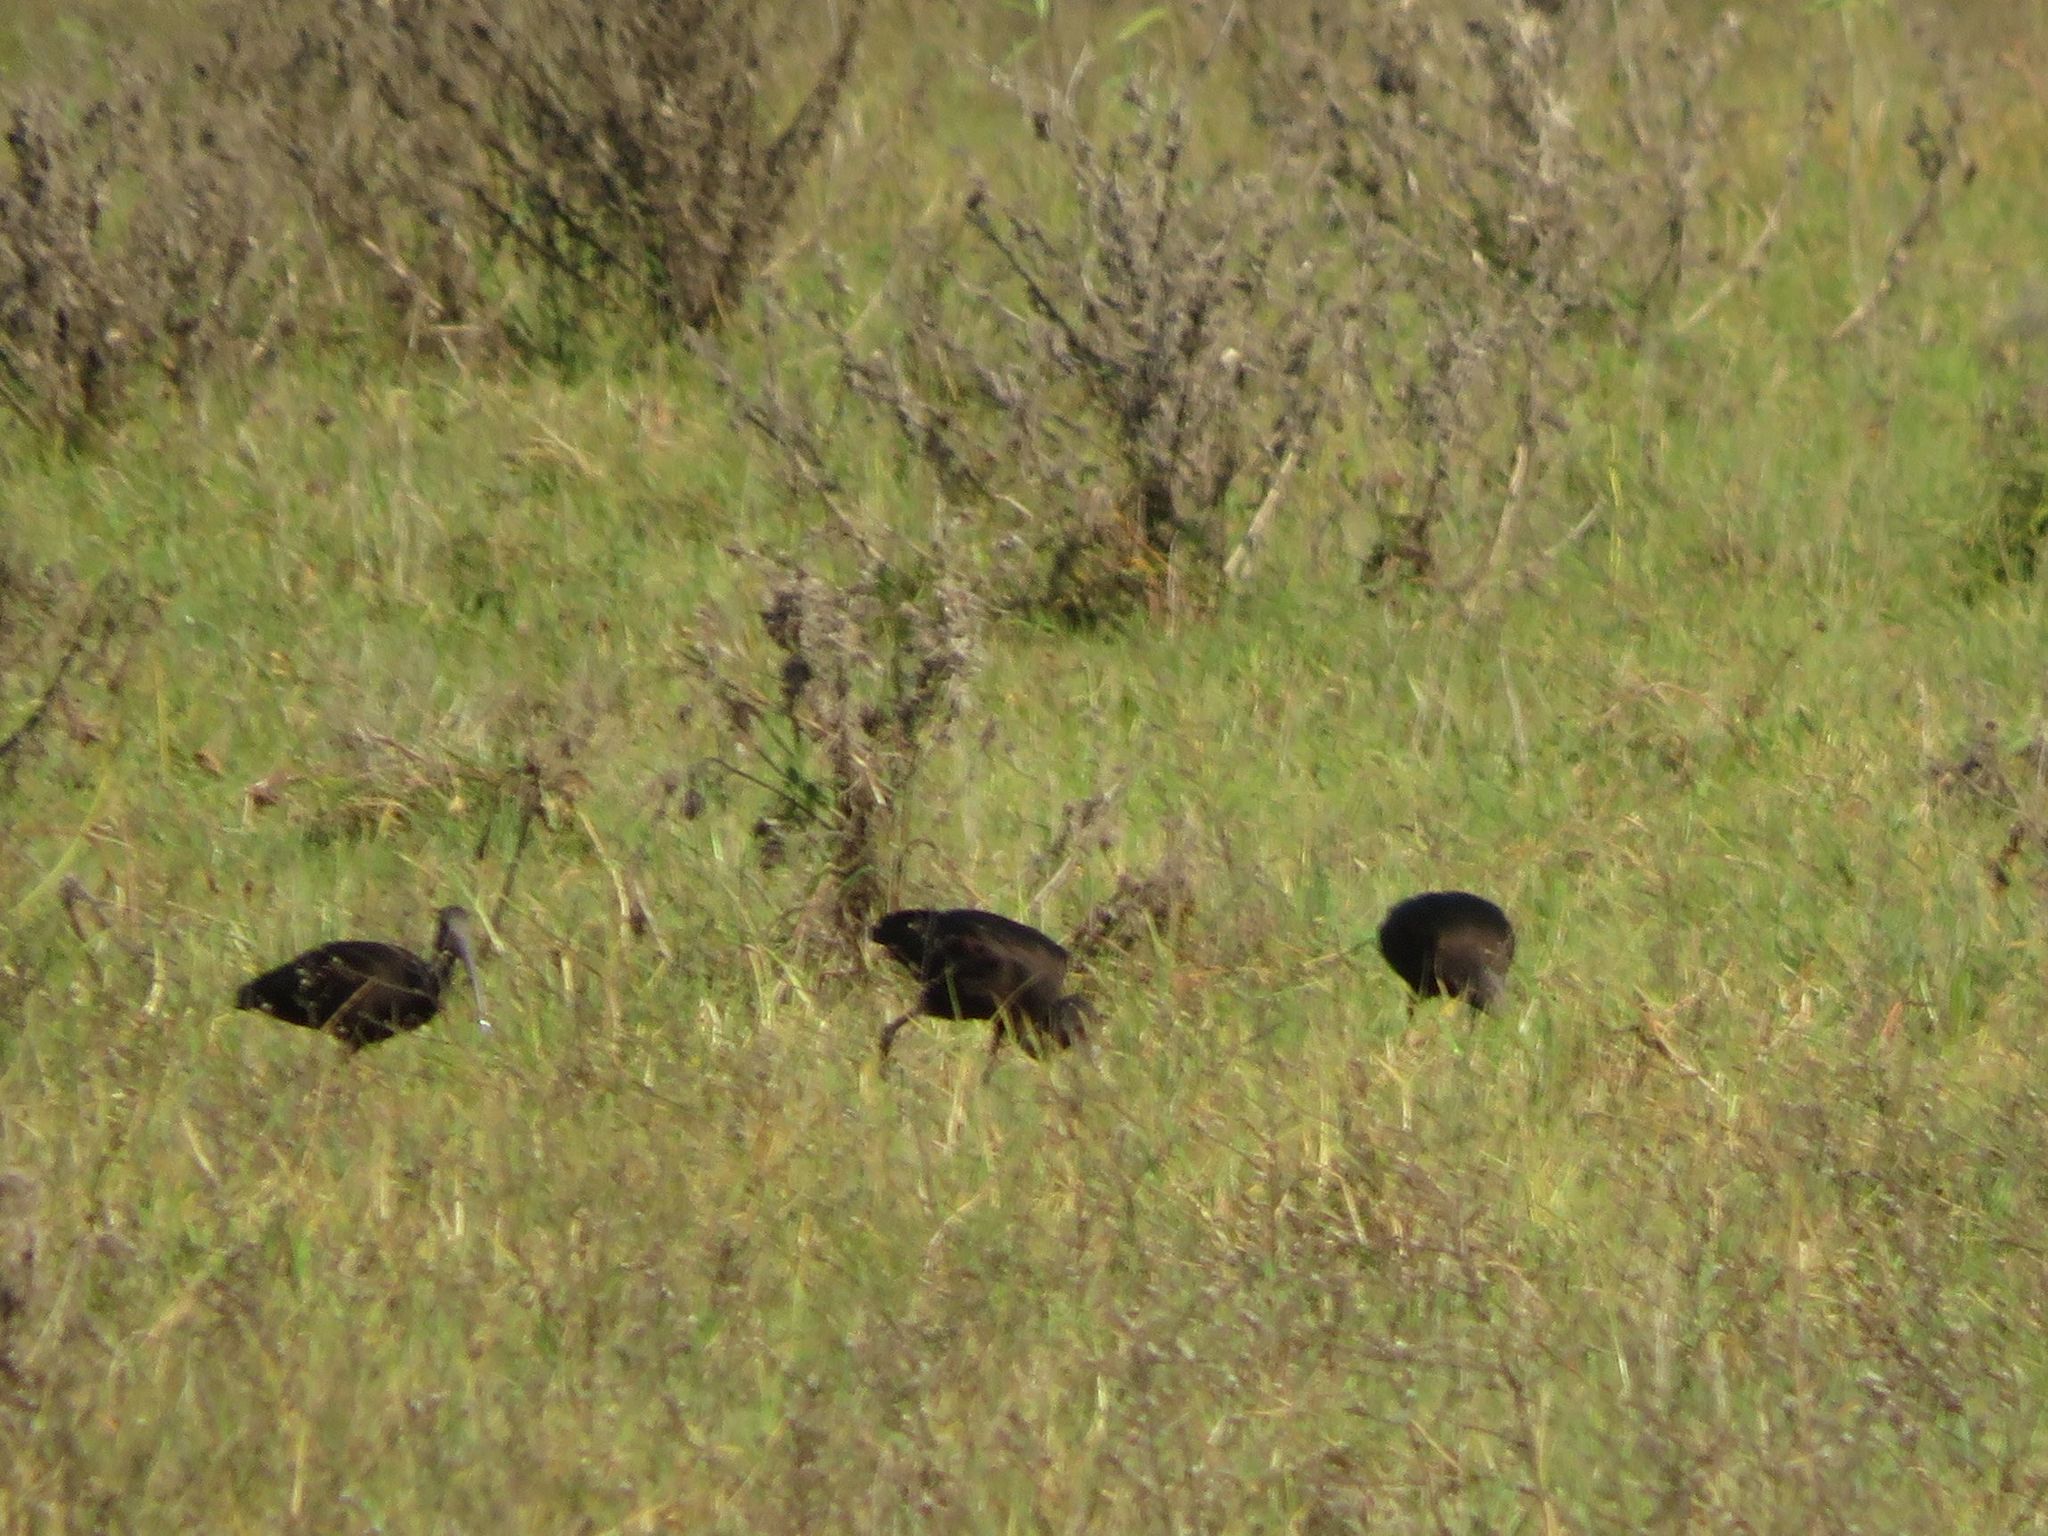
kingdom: Animalia
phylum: Chordata
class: Aves
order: Pelecaniformes
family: Threskiornithidae
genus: Plegadis
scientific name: Plegadis chihi
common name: White-faced ibis
